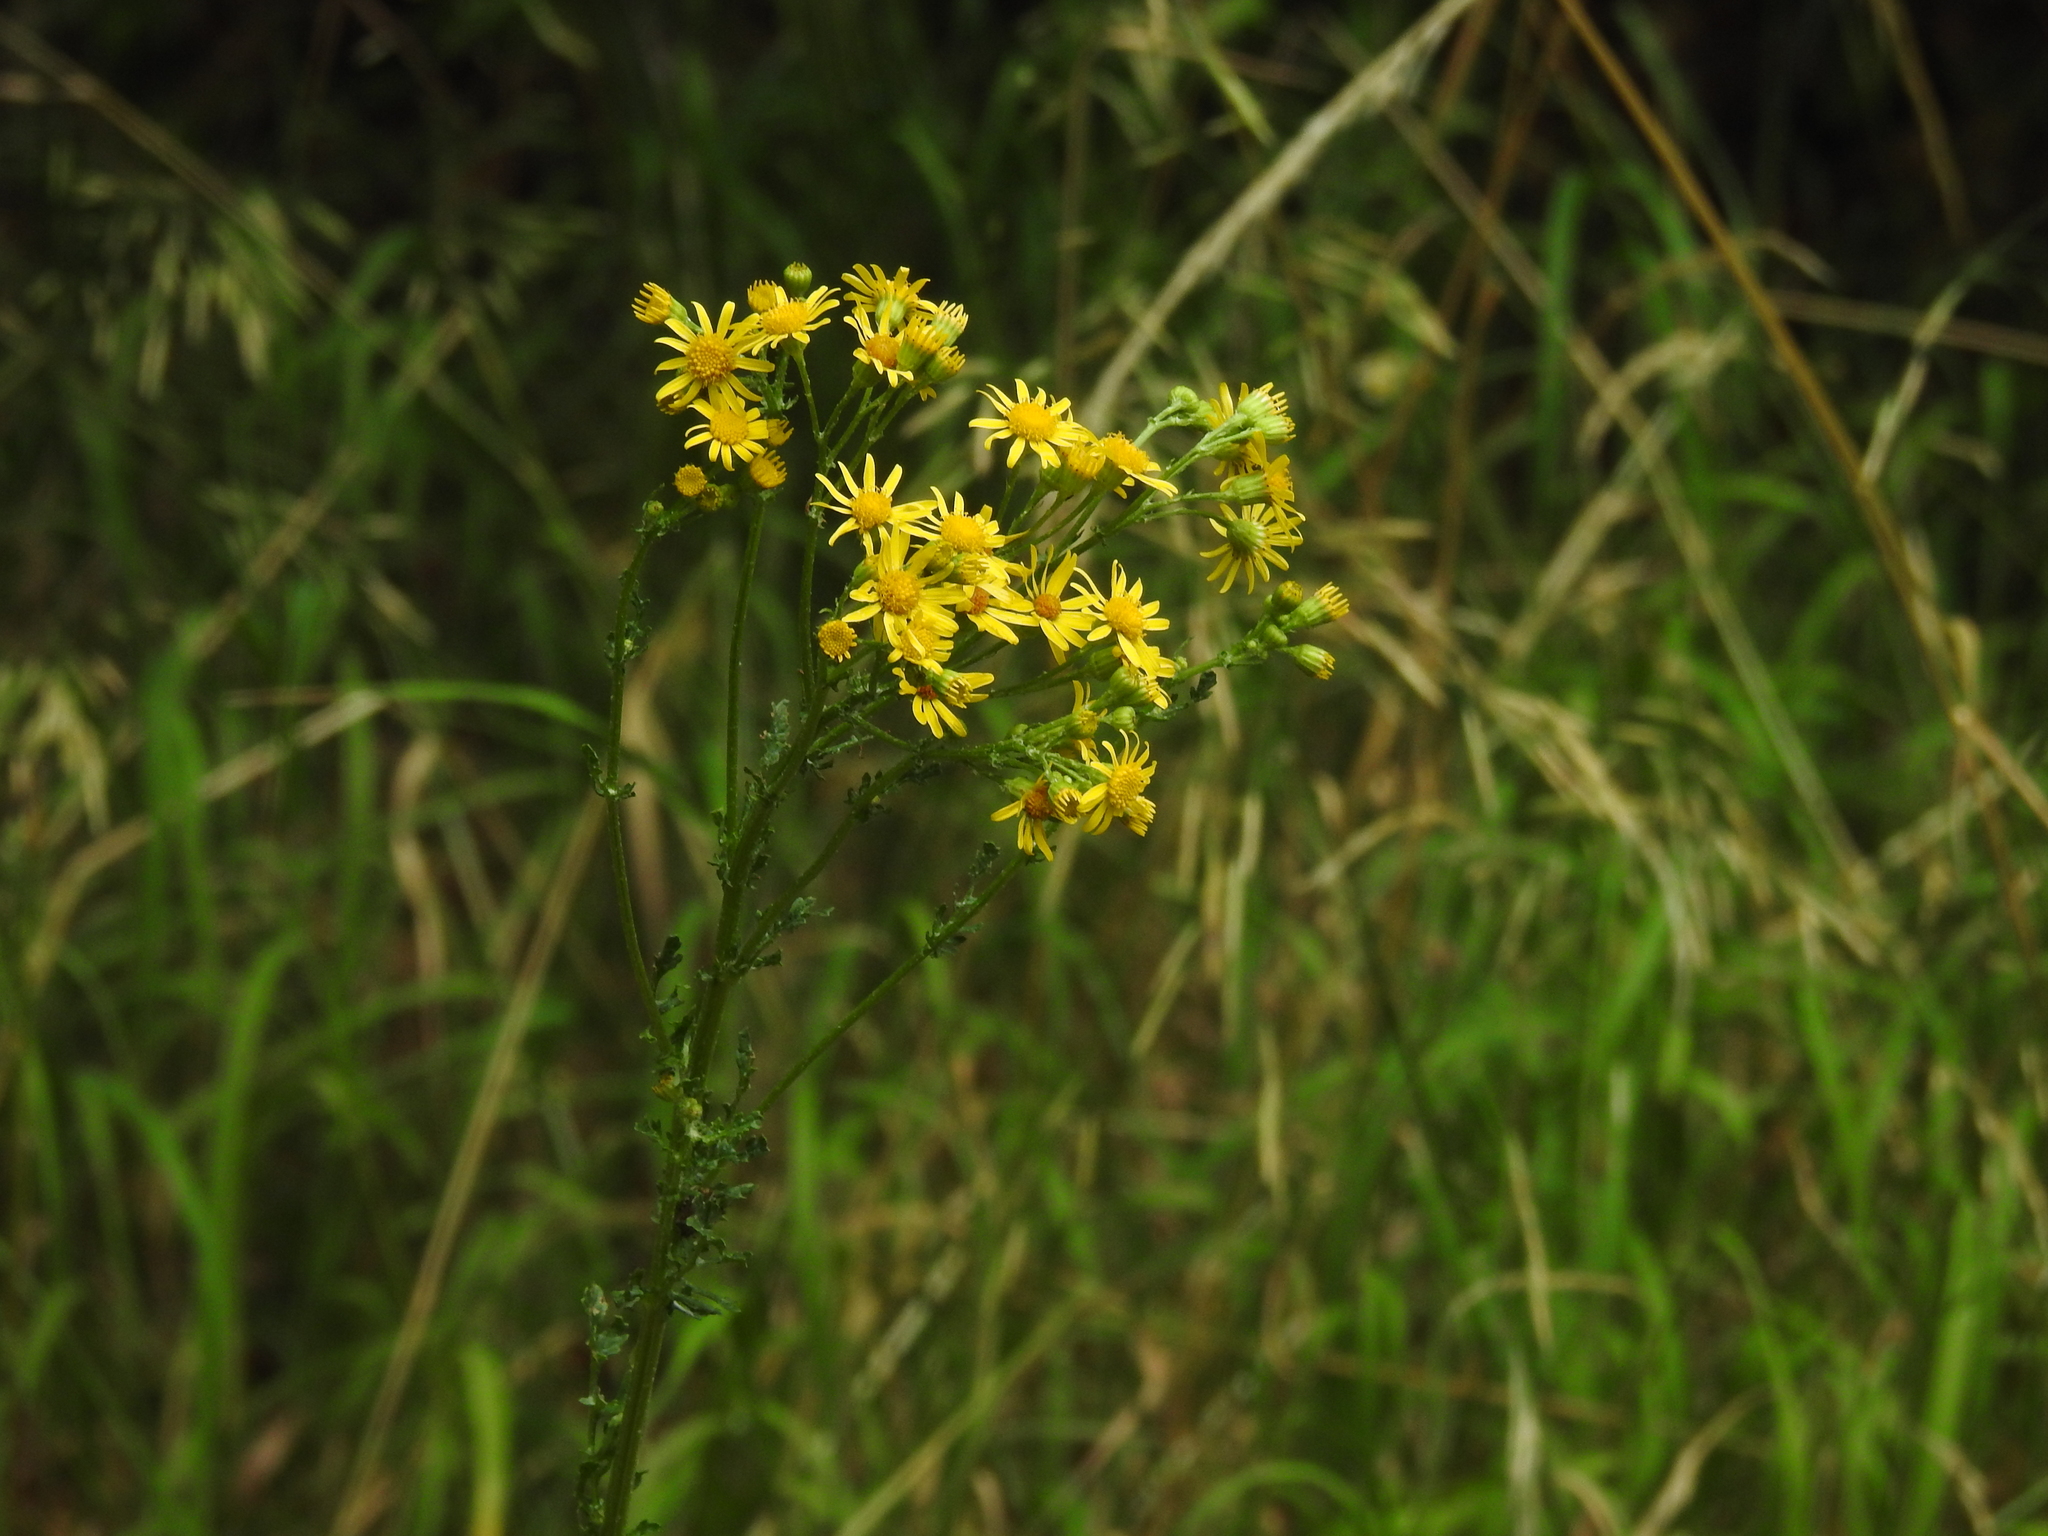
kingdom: Plantae
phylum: Tracheophyta
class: Magnoliopsida
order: Asterales
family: Asteraceae
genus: Jacobaea
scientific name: Jacobaea vulgaris
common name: Stinking willie
